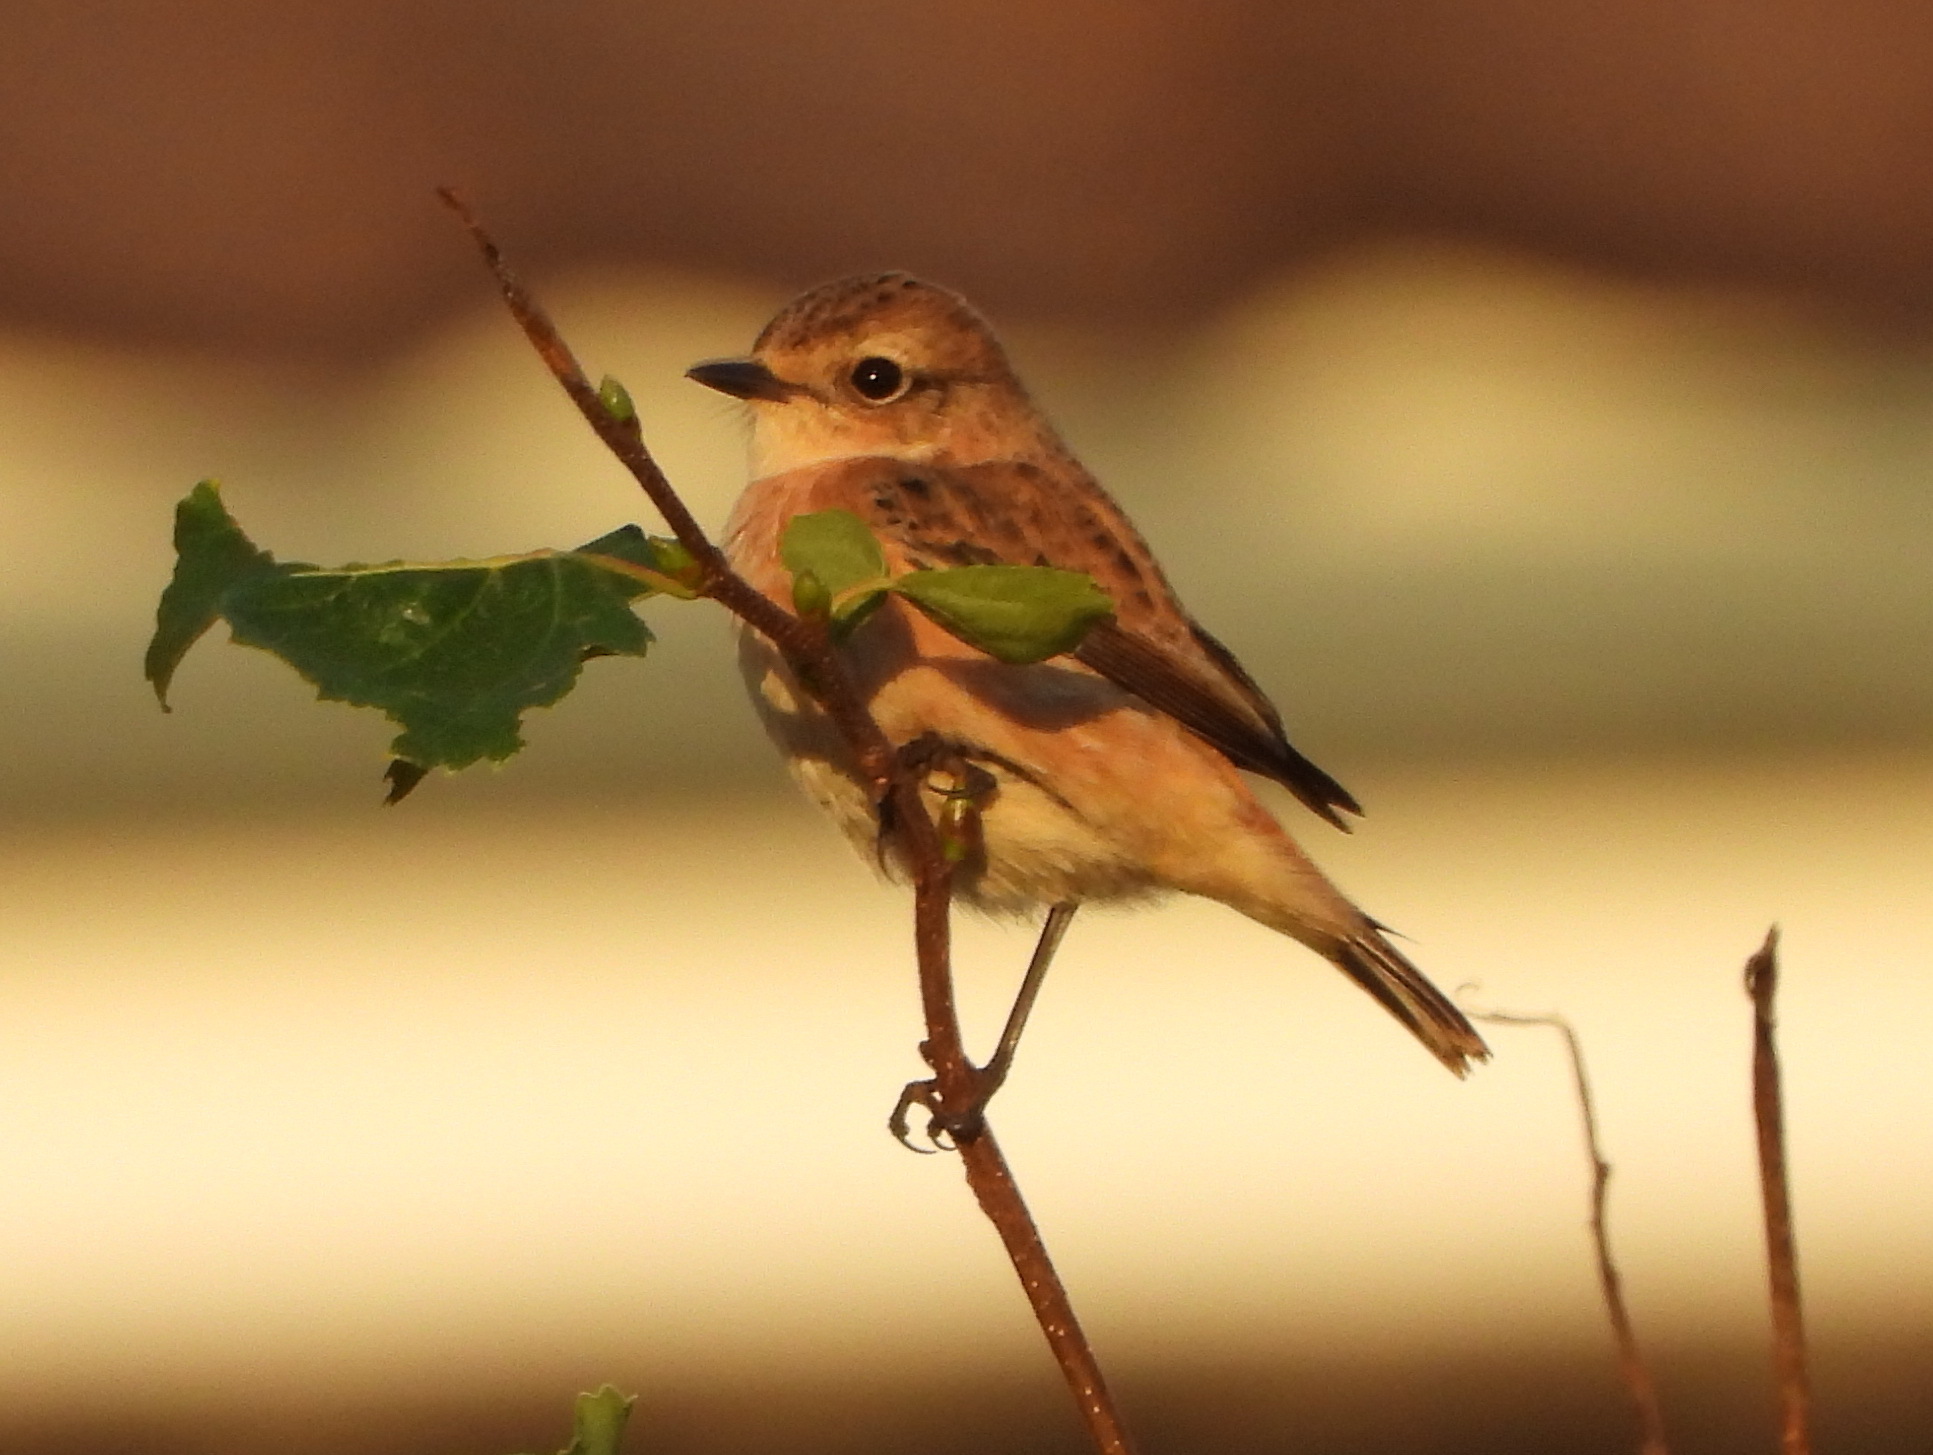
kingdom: Animalia
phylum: Chordata
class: Aves
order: Passeriformes
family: Muscicapidae
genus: Saxicola
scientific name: Saxicola stejnegeri
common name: Stejneger's stonechat
